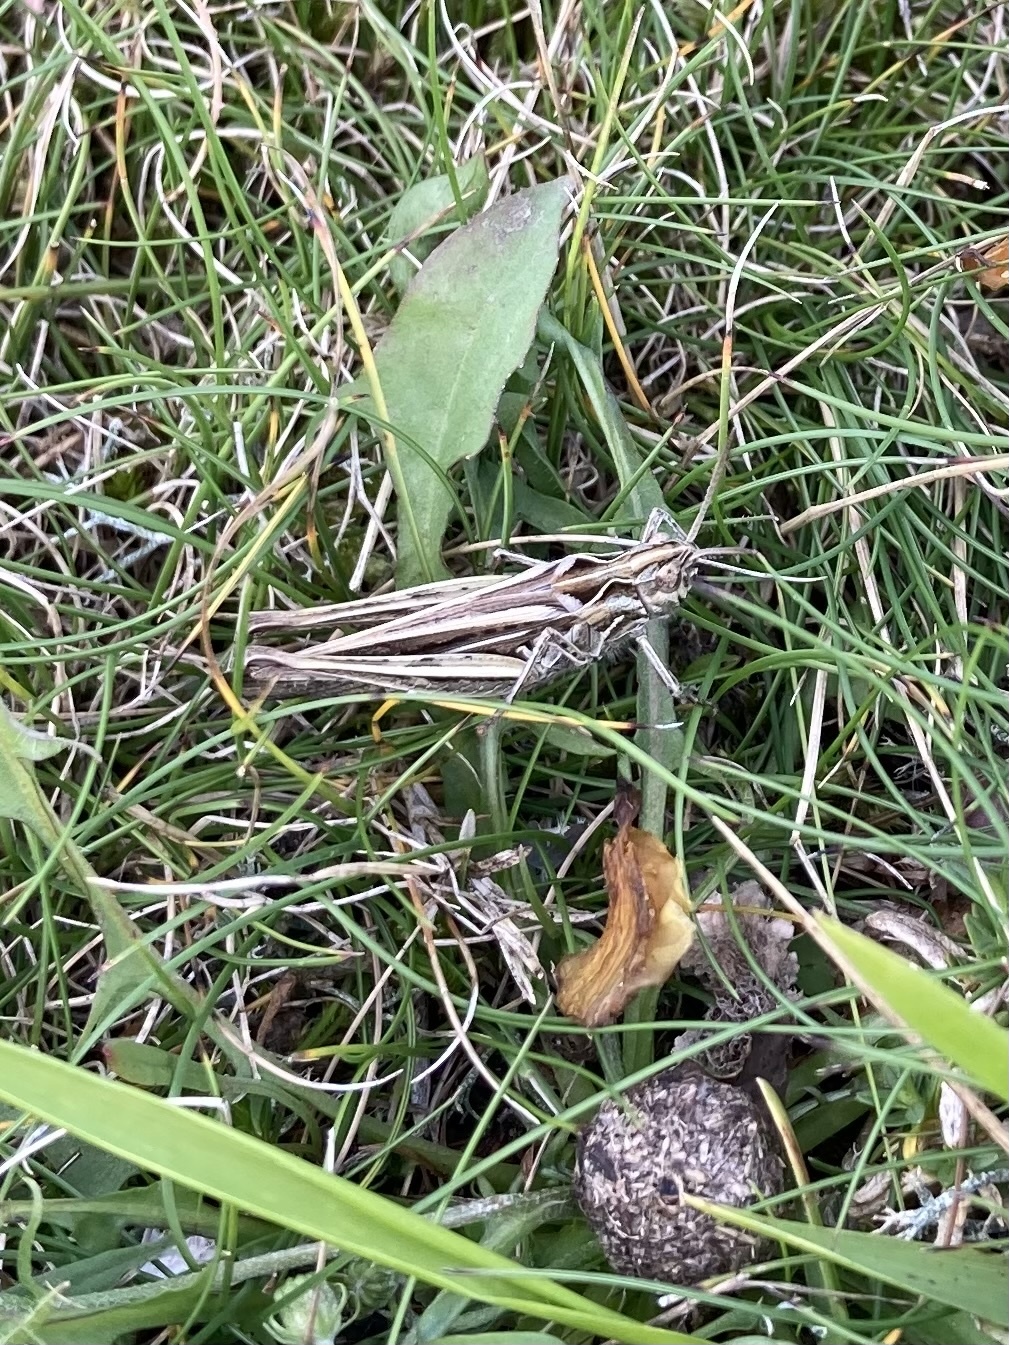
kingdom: Animalia
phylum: Arthropoda
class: Insecta
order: Orthoptera
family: Acrididae
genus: Chorthippus
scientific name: Chorthippus brunneus
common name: Field grasshopper
